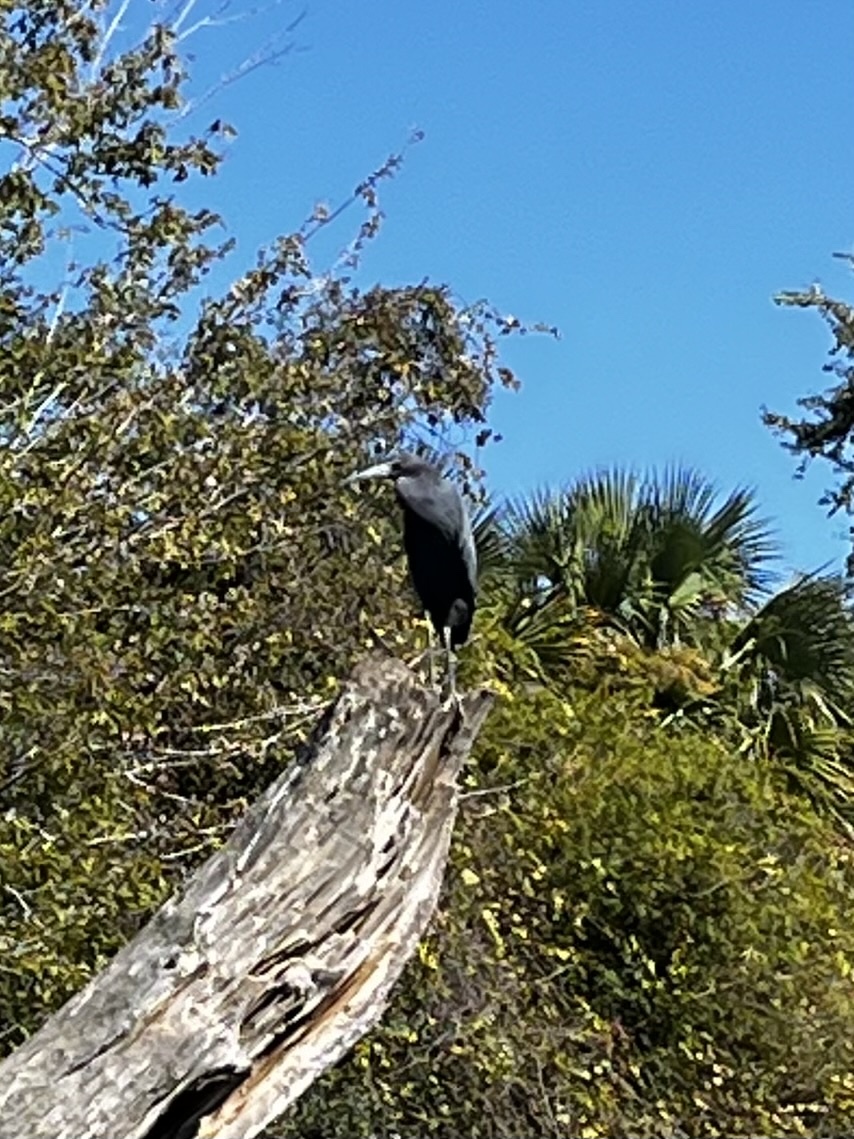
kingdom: Animalia
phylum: Chordata
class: Aves
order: Pelecaniformes
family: Ardeidae
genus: Egretta
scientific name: Egretta caerulea
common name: Little blue heron
